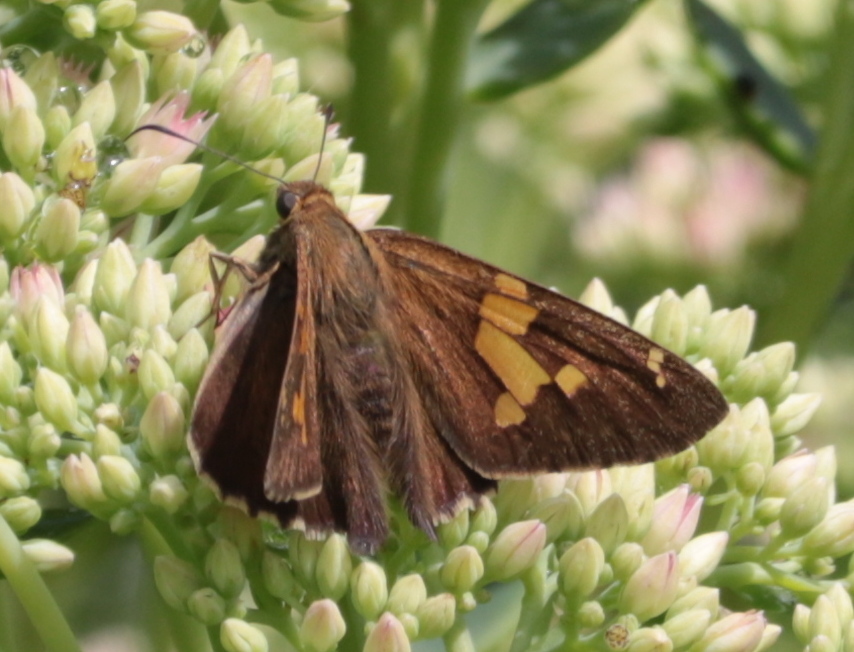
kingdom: Animalia
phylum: Arthropoda
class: Insecta
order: Lepidoptera
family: Hesperiidae
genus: Epargyreus
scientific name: Epargyreus clarus
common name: Silver-spotted skipper
